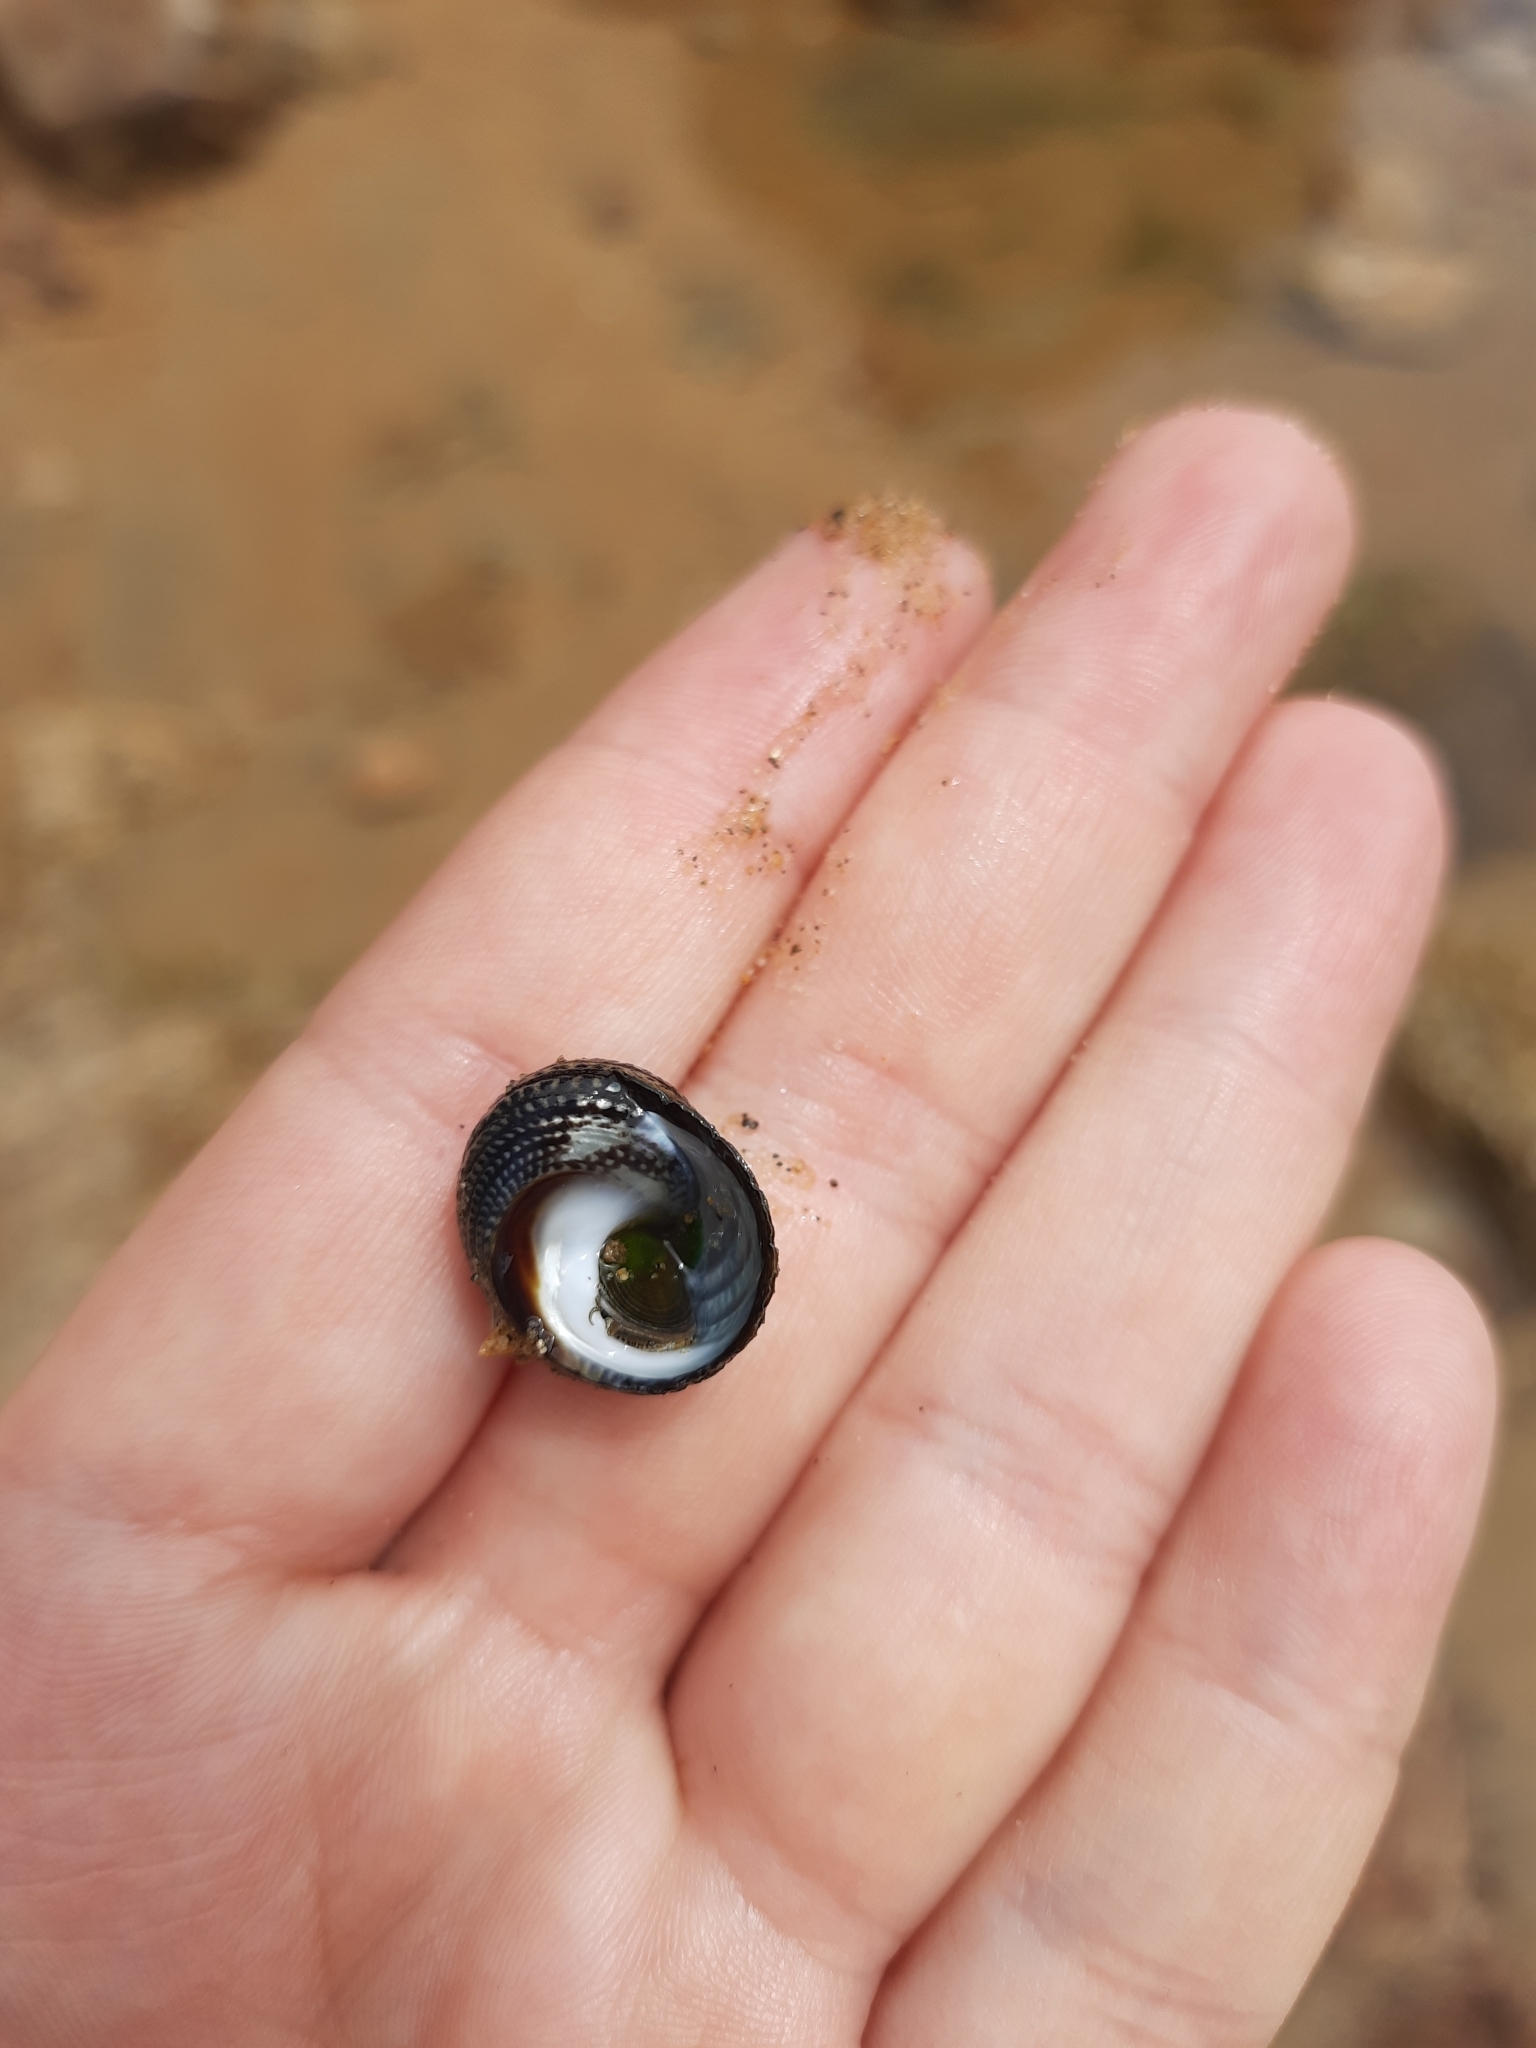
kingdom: Animalia
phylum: Mollusca
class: Gastropoda
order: Trochida
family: Trochidae
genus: Diloma
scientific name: Diloma aethiops
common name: Scorched monodont
